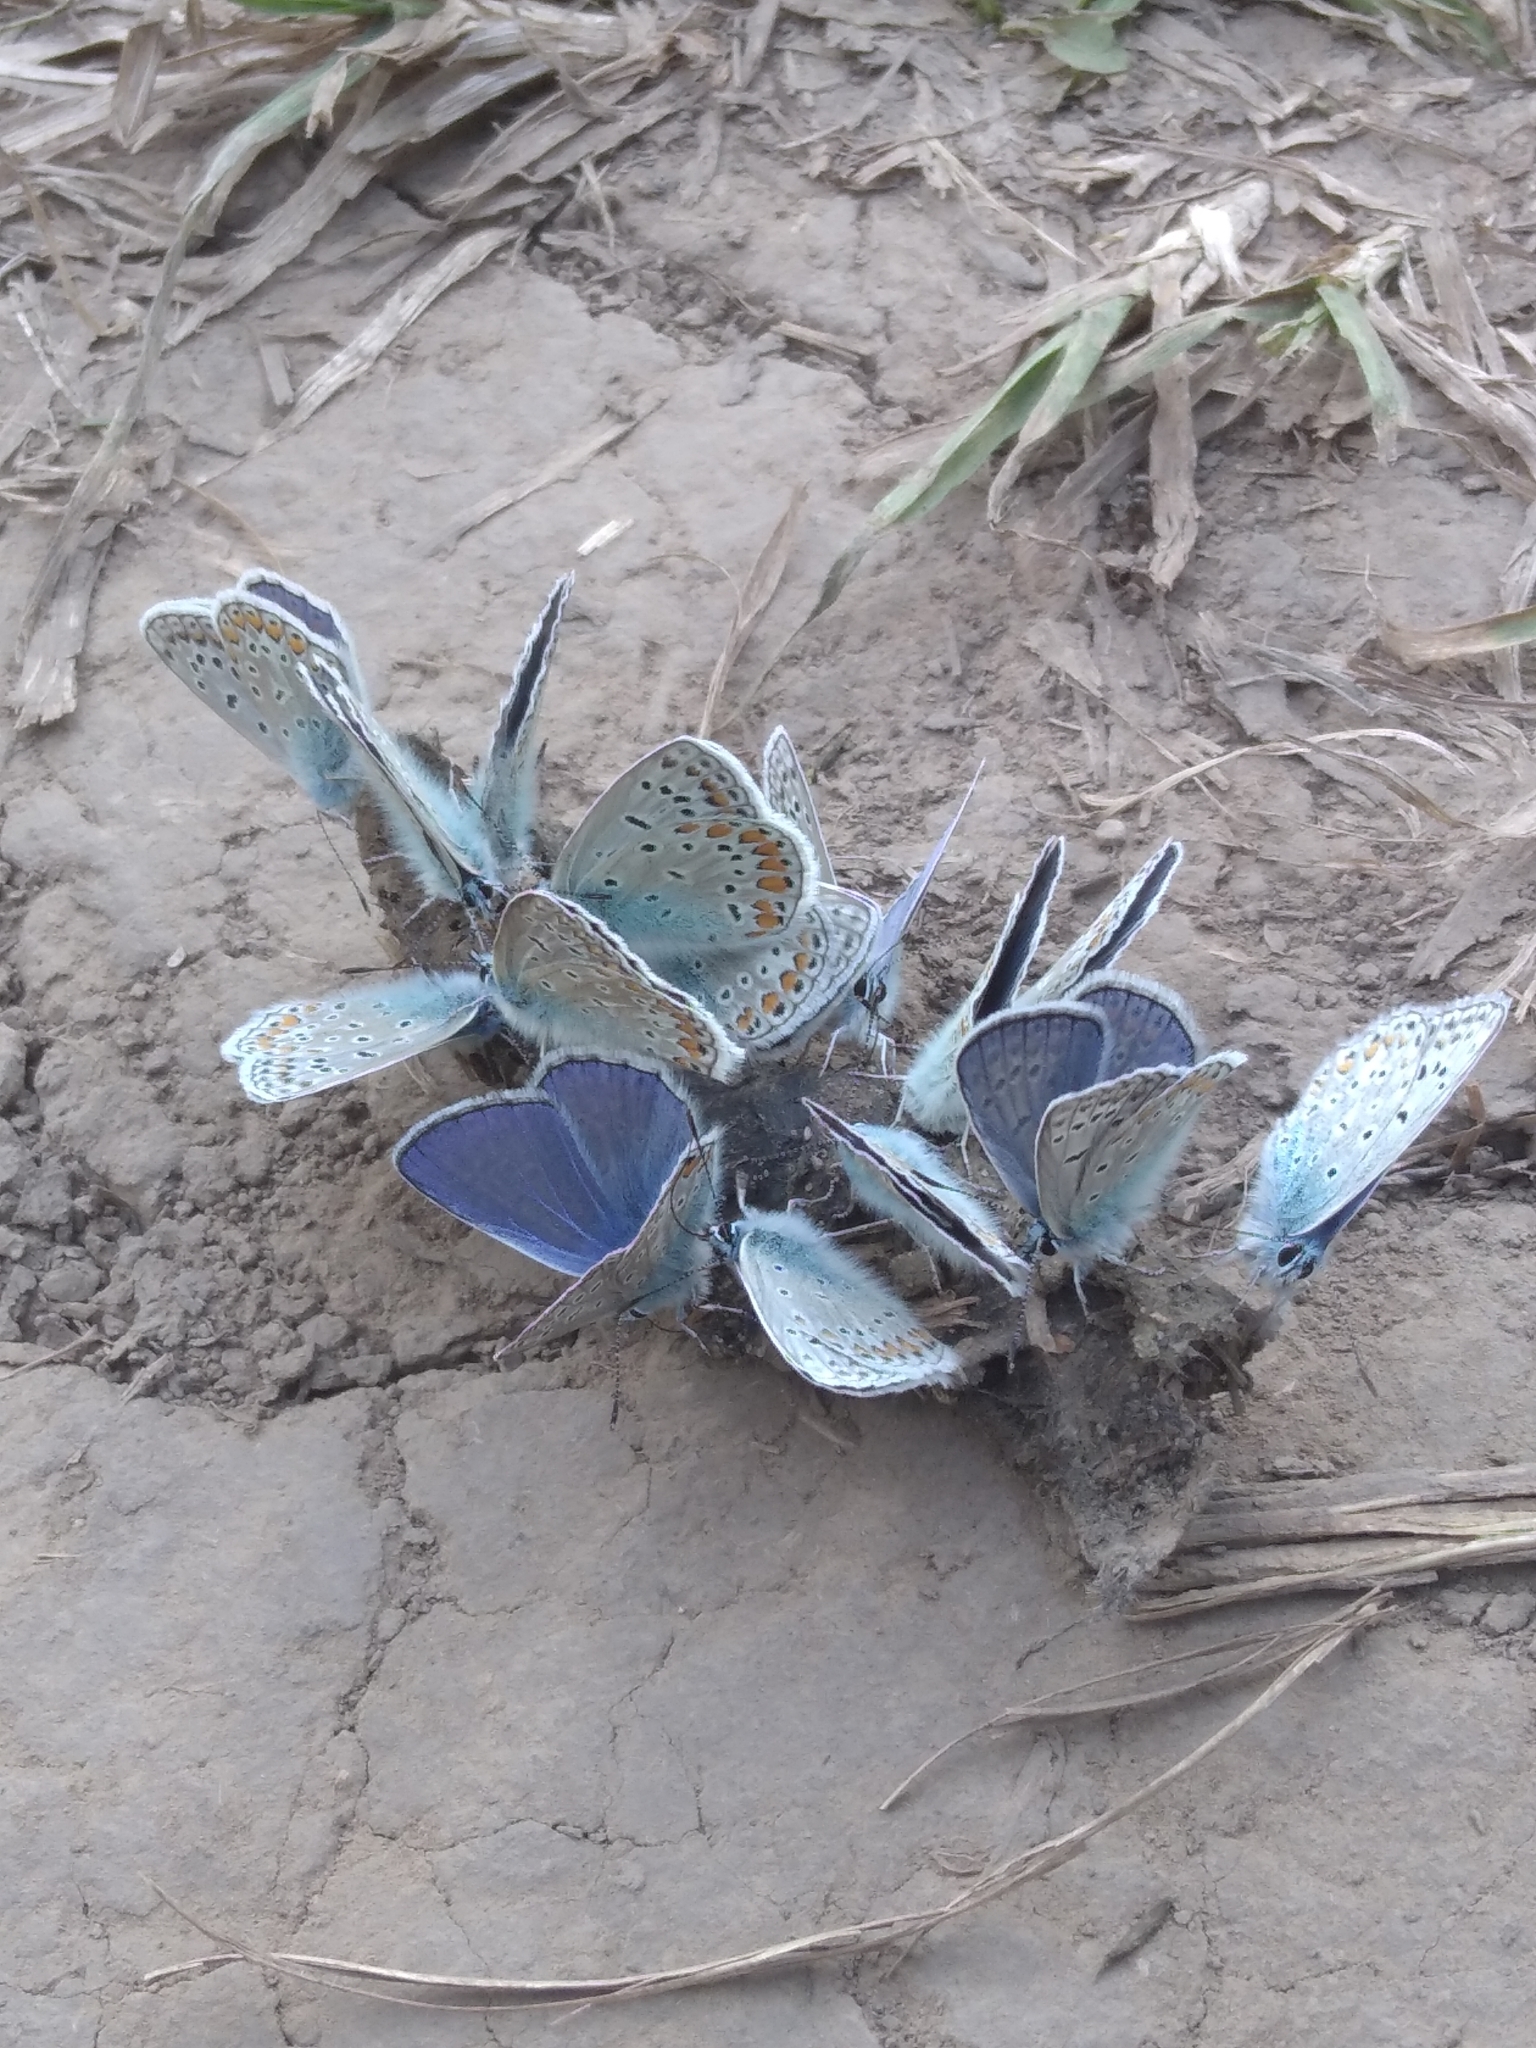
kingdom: Animalia
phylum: Arthropoda
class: Insecta
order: Lepidoptera
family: Lycaenidae
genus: Polyommatus
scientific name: Polyommatus icarus
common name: Common blue
